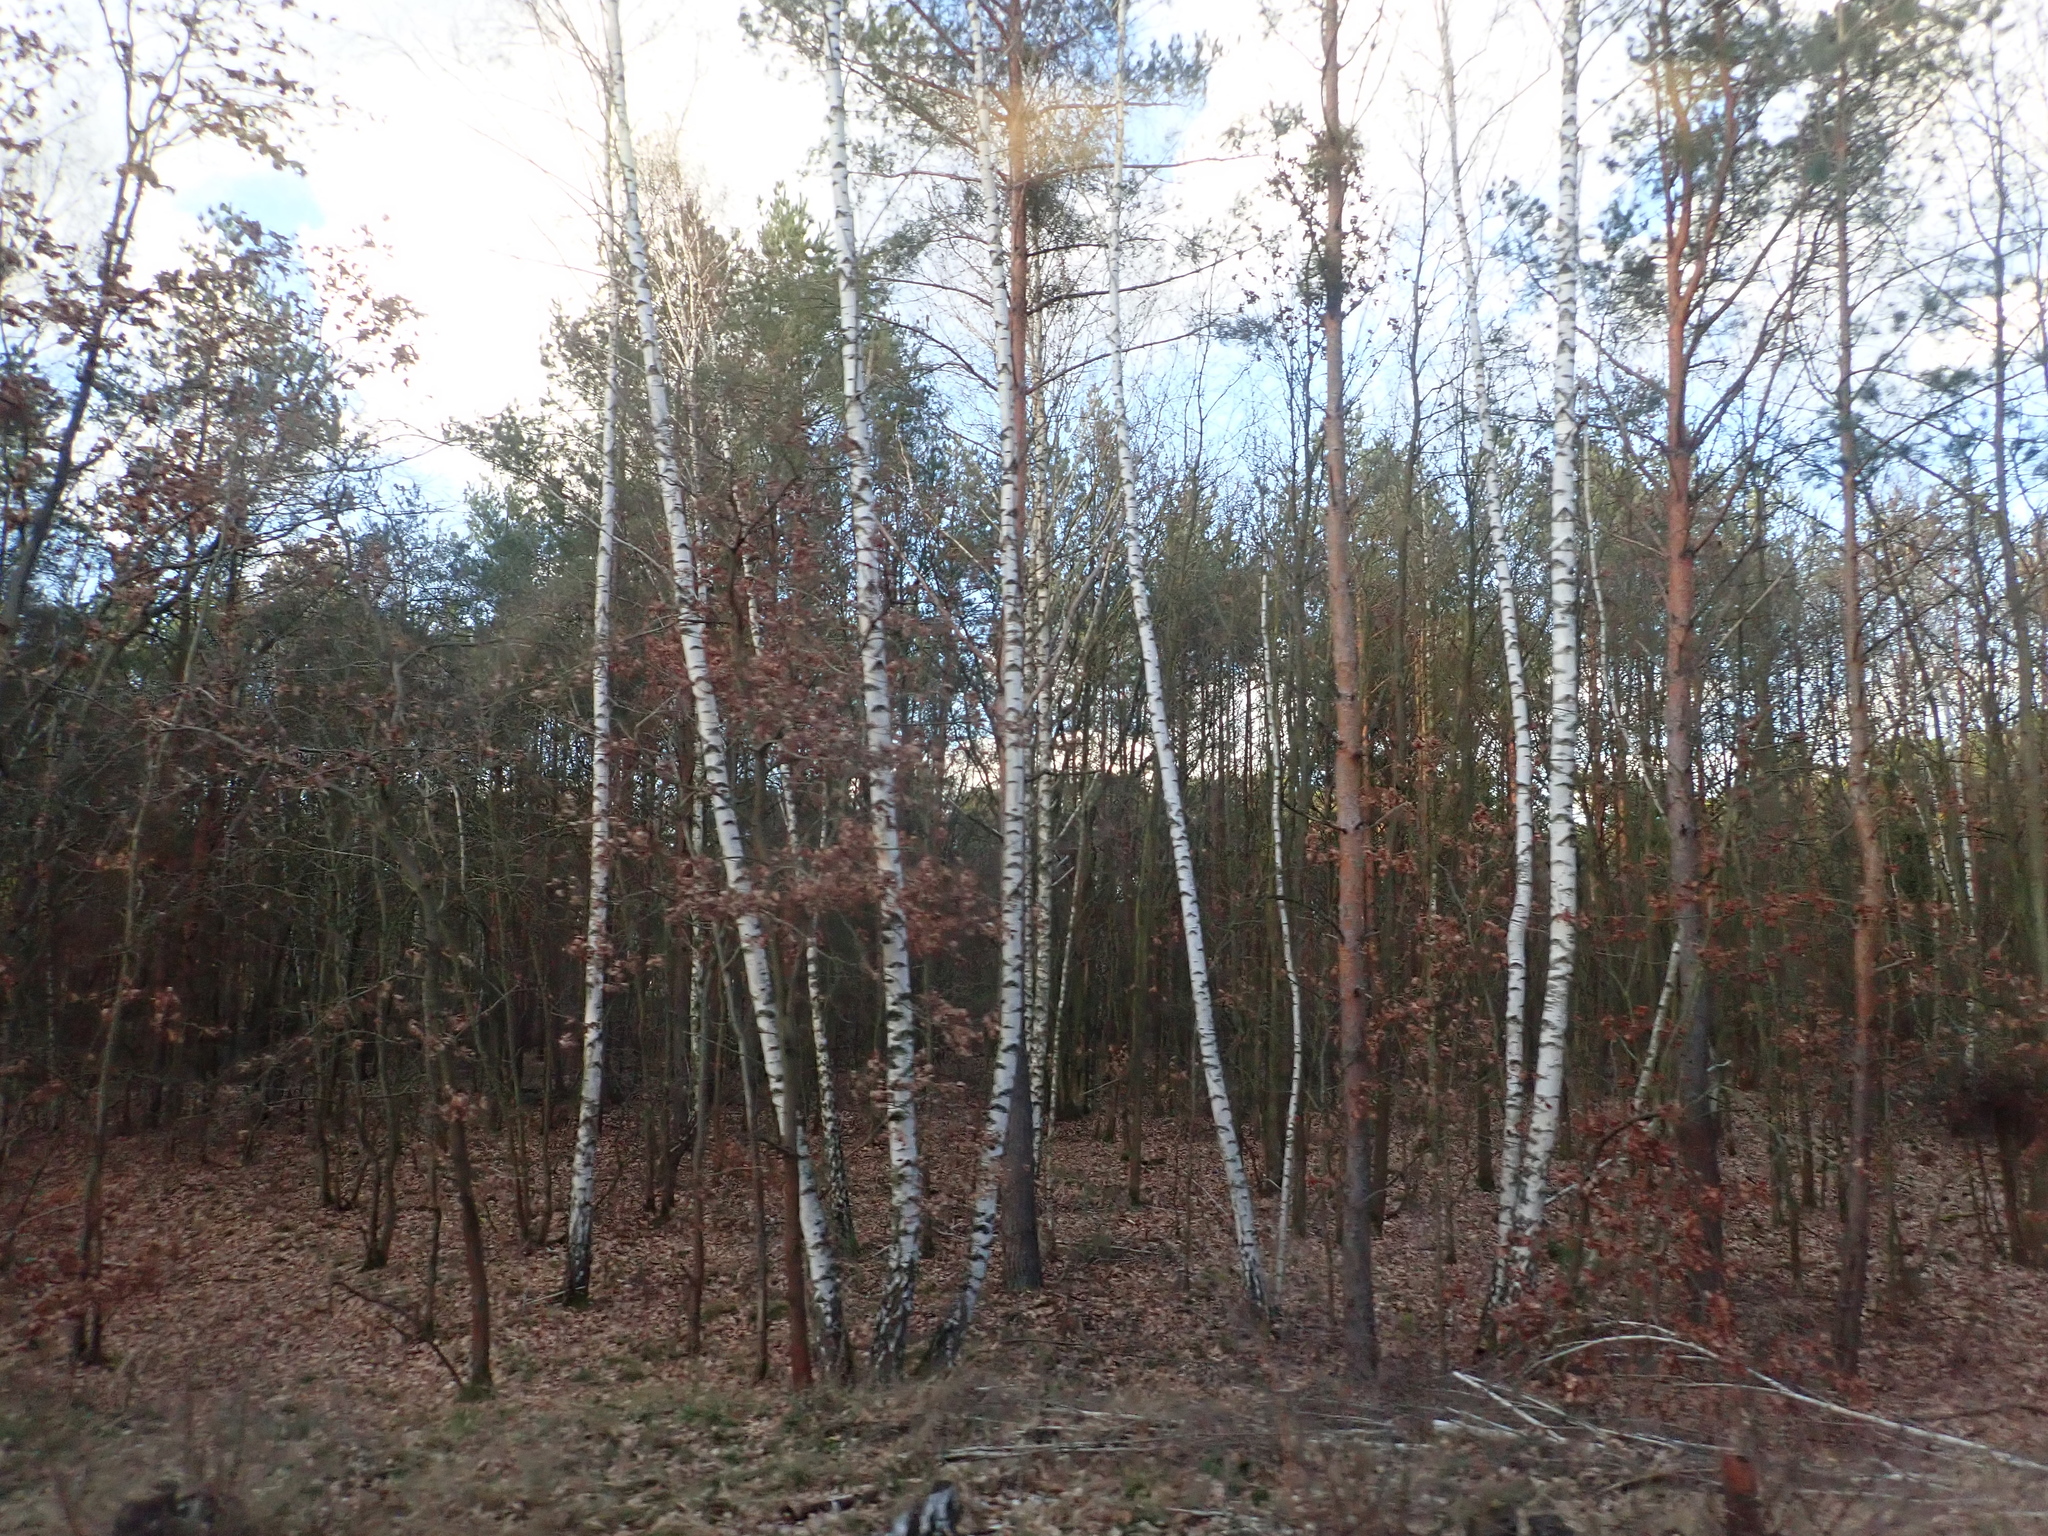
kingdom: Plantae
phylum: Tracheophyta
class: Magnoliopsida
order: Fagales
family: Betulaceae
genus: Betula
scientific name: Betula pendula
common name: Silver birch
